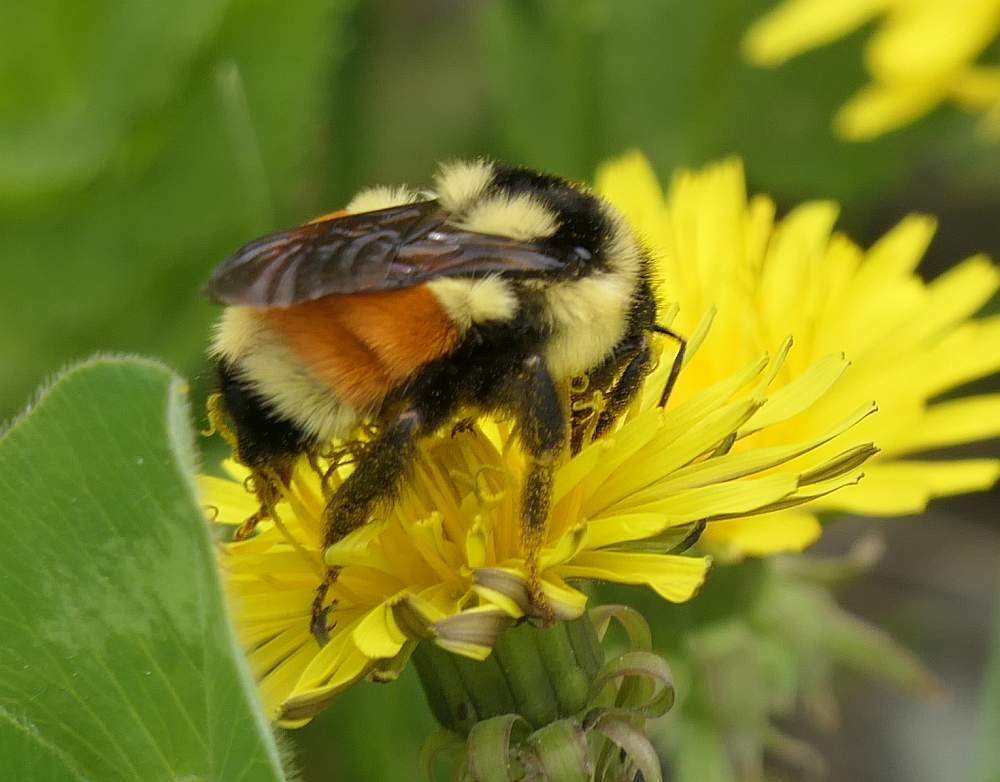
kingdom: Animalia
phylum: Arthropoda
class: Insecta
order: Hymenoptera
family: Apidae
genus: Bombus
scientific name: Bombus ternarius
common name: Tri-colored bumble bee
